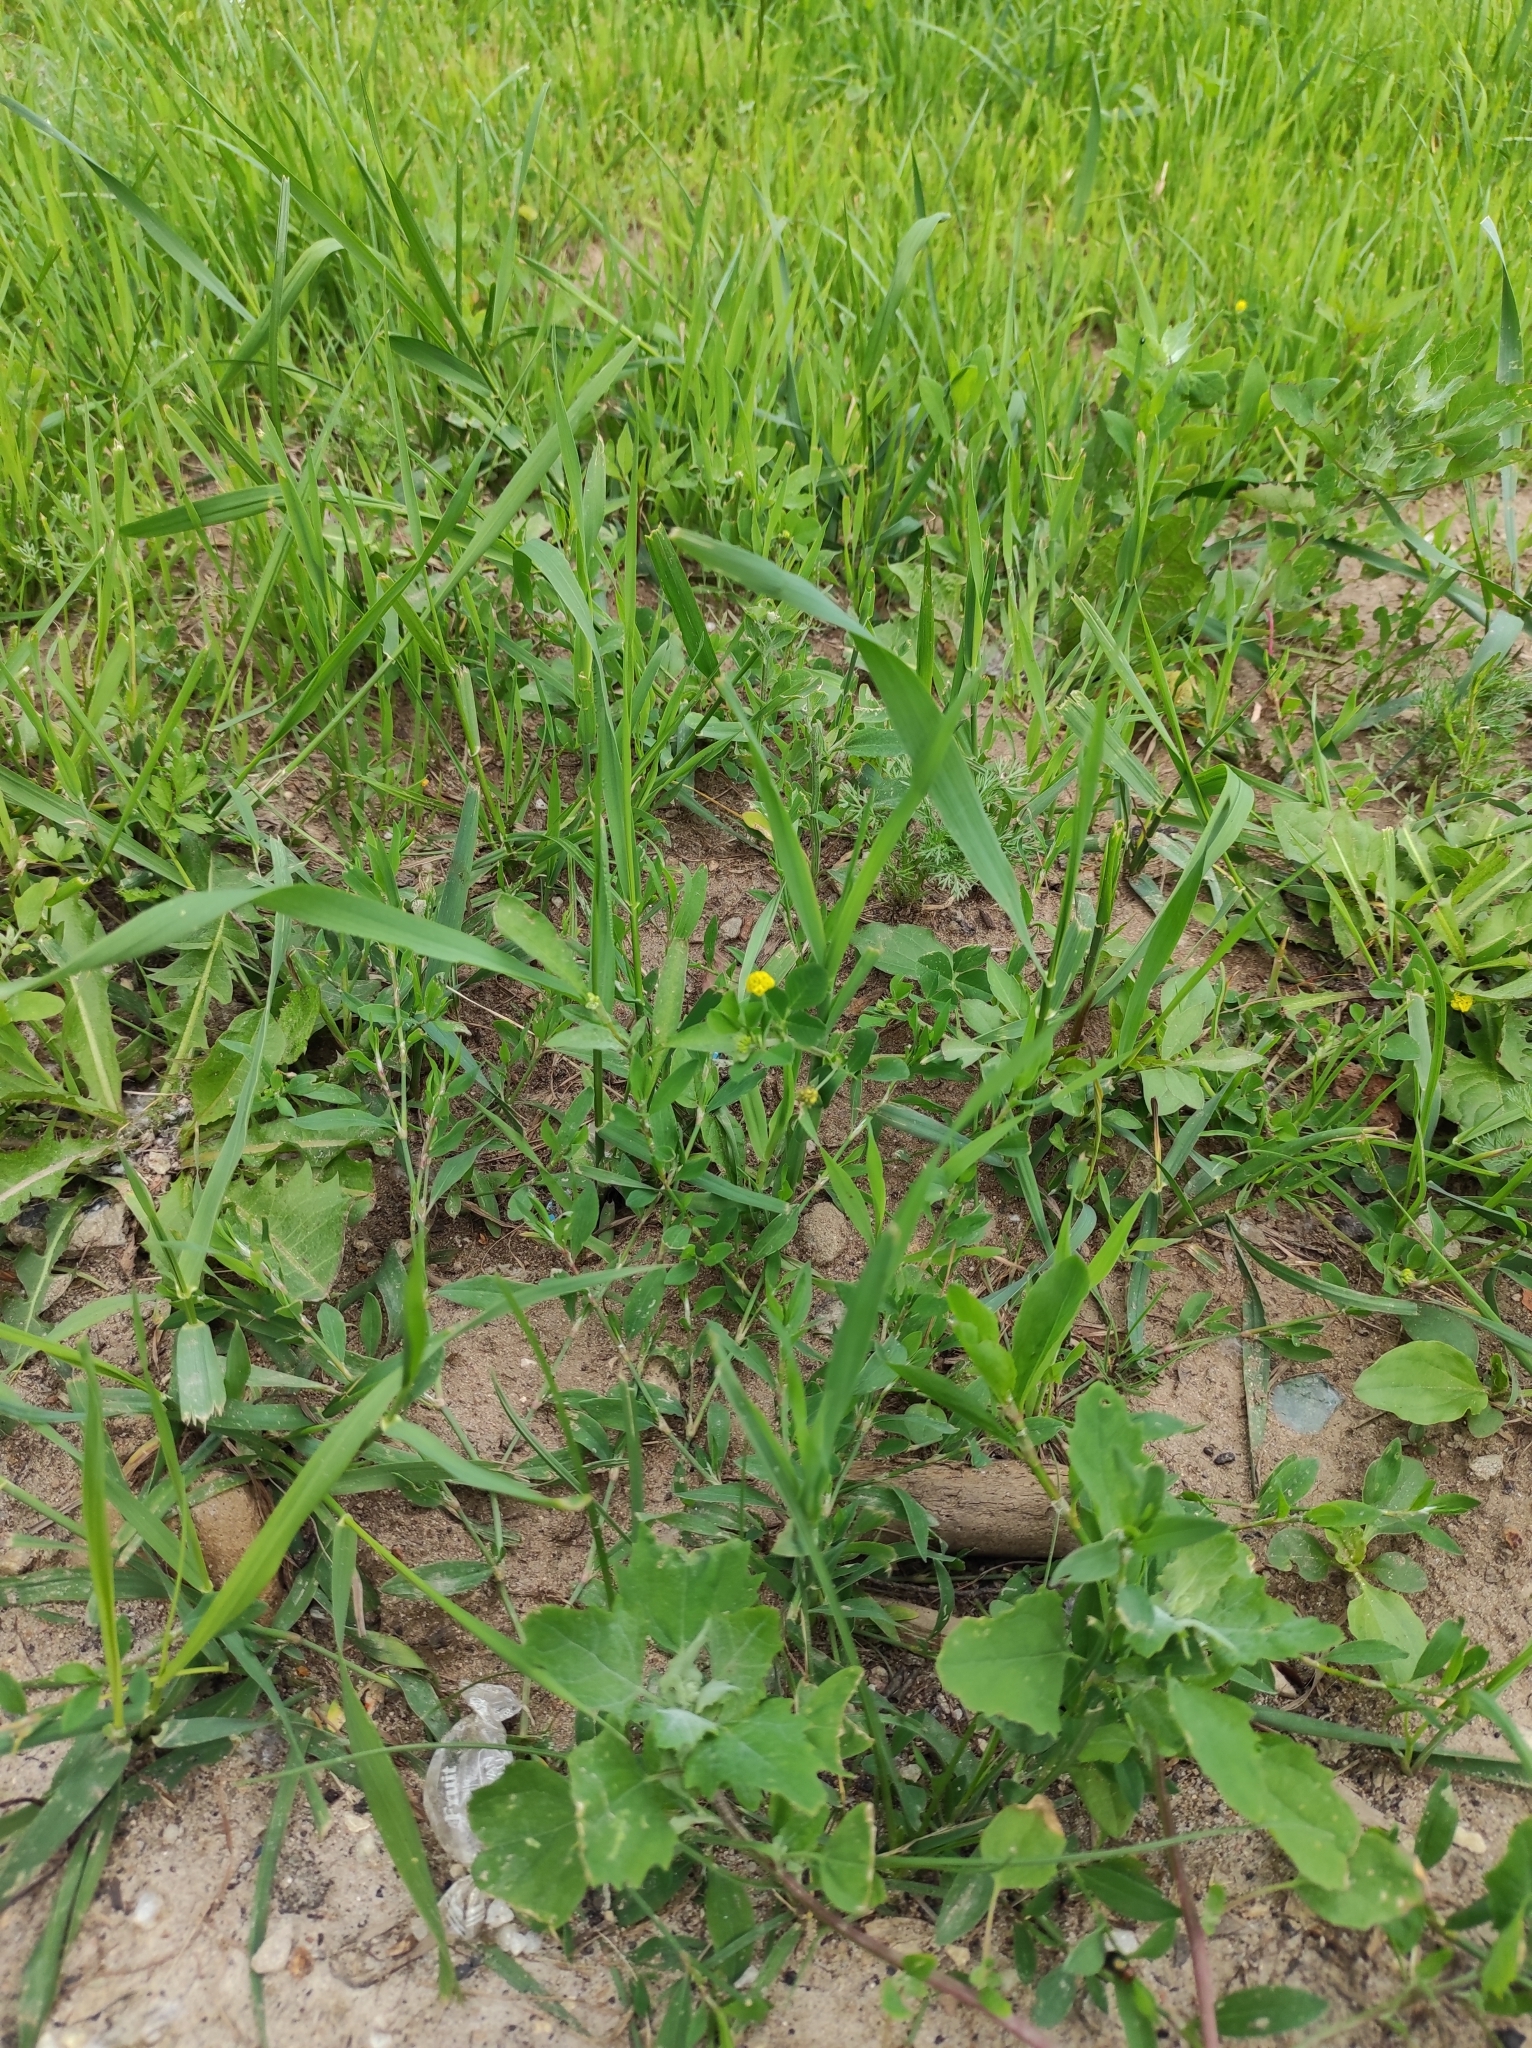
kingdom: Plantae
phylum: Tracheophyta
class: Magnoliopsida
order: Fabales
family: Fabaceae
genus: Medicago
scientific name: Medicago lupulina
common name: Black medick
